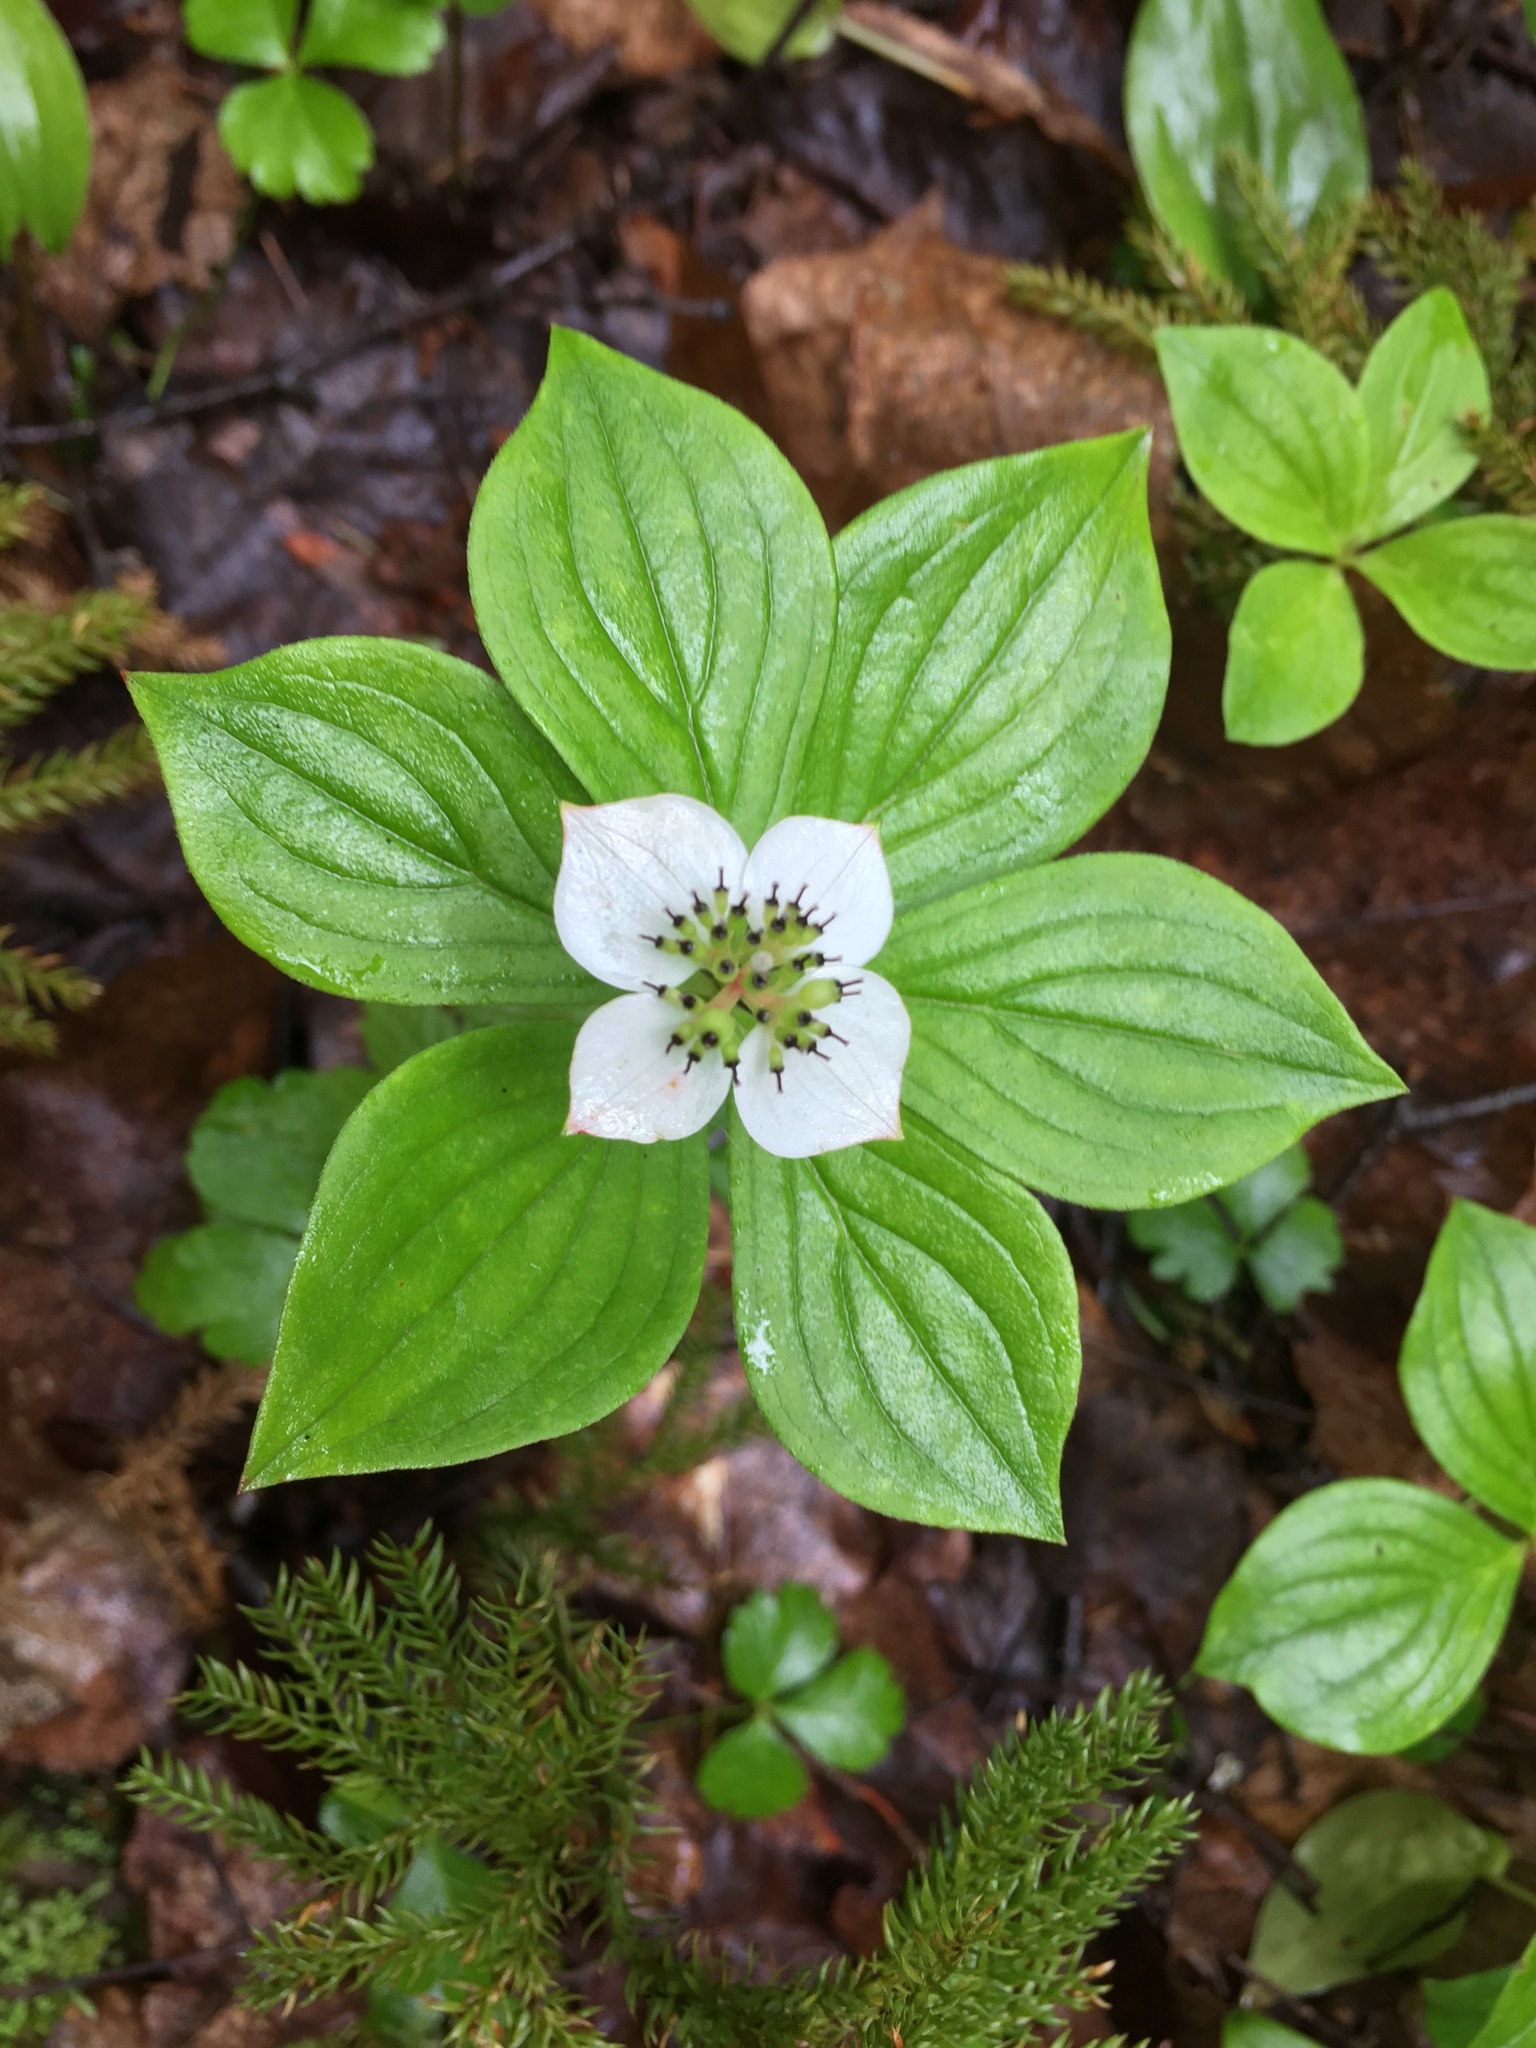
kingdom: Plantae
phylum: Tracheophyta
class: Magnoliopsida
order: Cornales
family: Cornaceae
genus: Cornus
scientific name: Cornus canadensis
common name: Creeping dogwood
